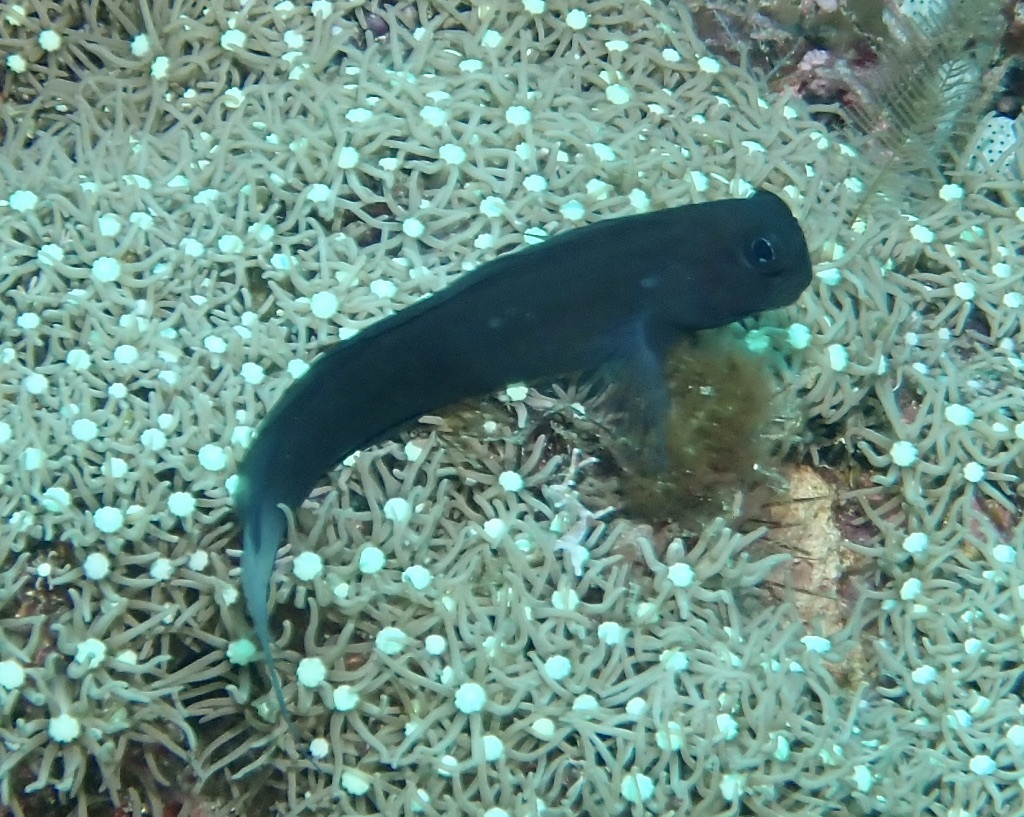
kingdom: Animalia
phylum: Chordata
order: Perciformes
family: Blenniidae
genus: Ecsenius
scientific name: Ecsenius namiyei
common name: Black comb-tooth
